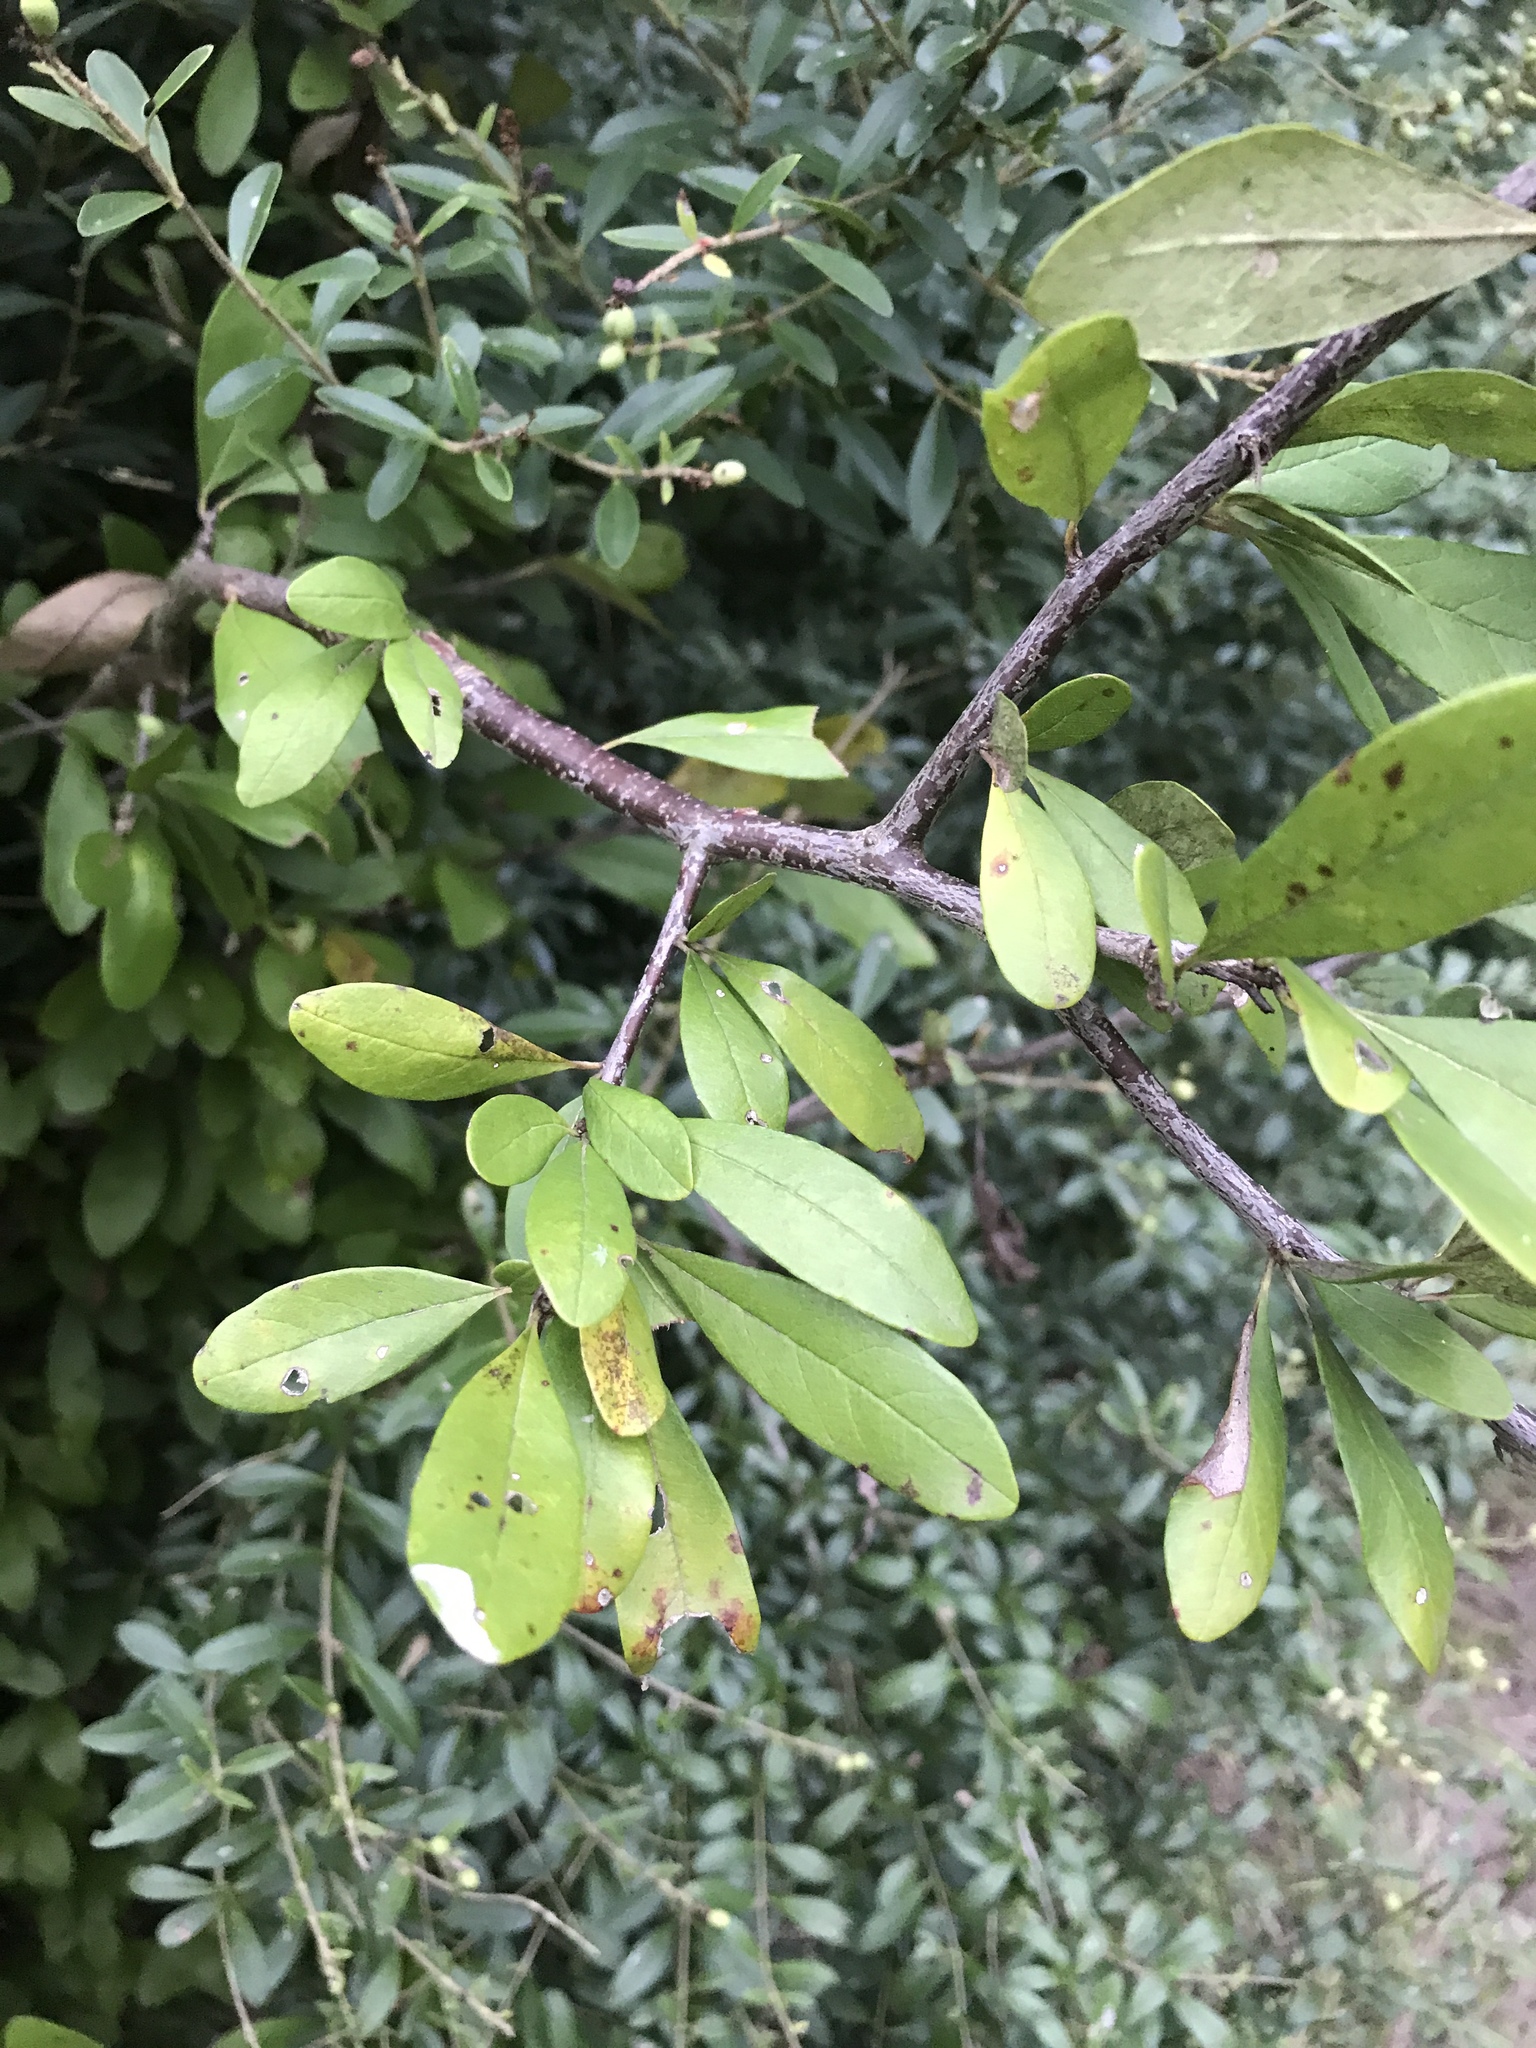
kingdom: Plantae
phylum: Tracheophyta
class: Magnoliopsida
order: Ericales
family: Sapotaceae
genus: Sideroxylon
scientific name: Sideroxylon lanuginosum
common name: Chittamwood
